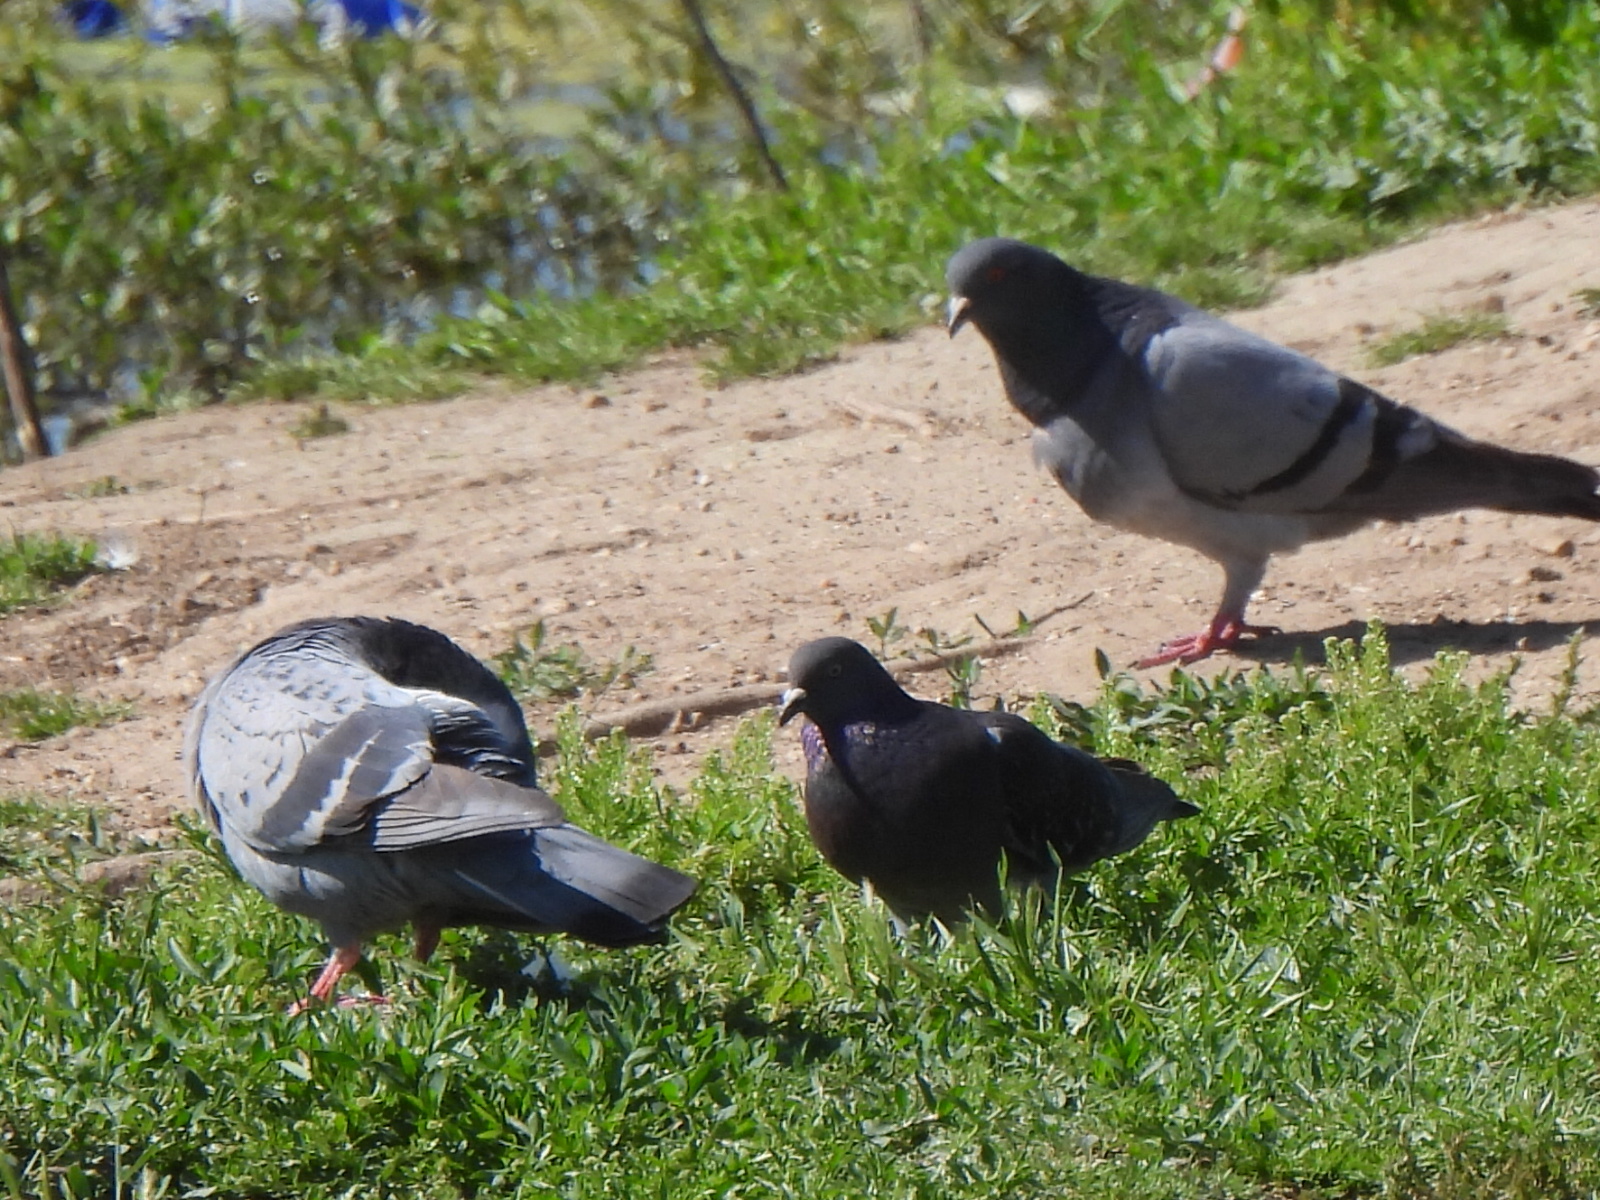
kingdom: Animalia
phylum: Chordata
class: Aves
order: Columbiformes
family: Columbidae
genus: Columba
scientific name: Columba livia
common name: Rock pigeon
